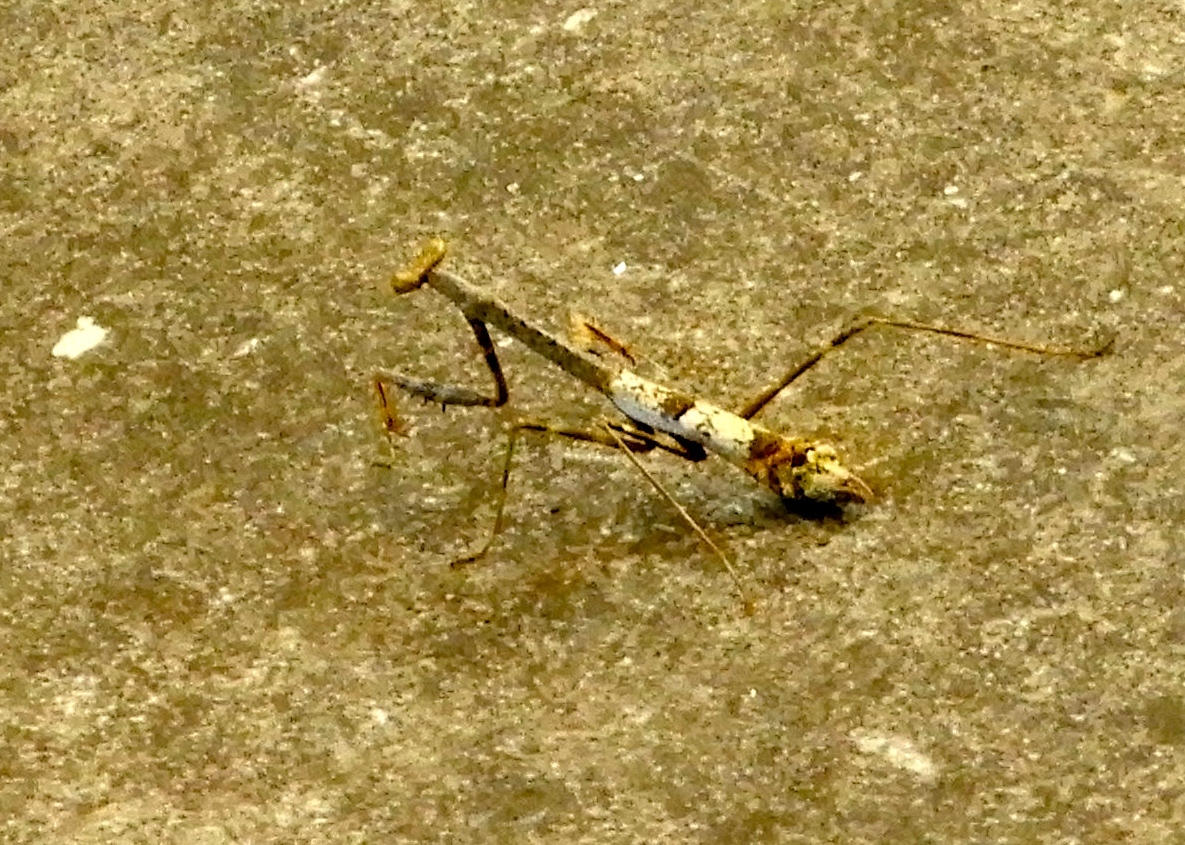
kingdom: Animalia
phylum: Arthropoda
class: Insecta
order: Mantodea
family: Mantidae
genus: Stagmomantis
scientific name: Stagmomantis
